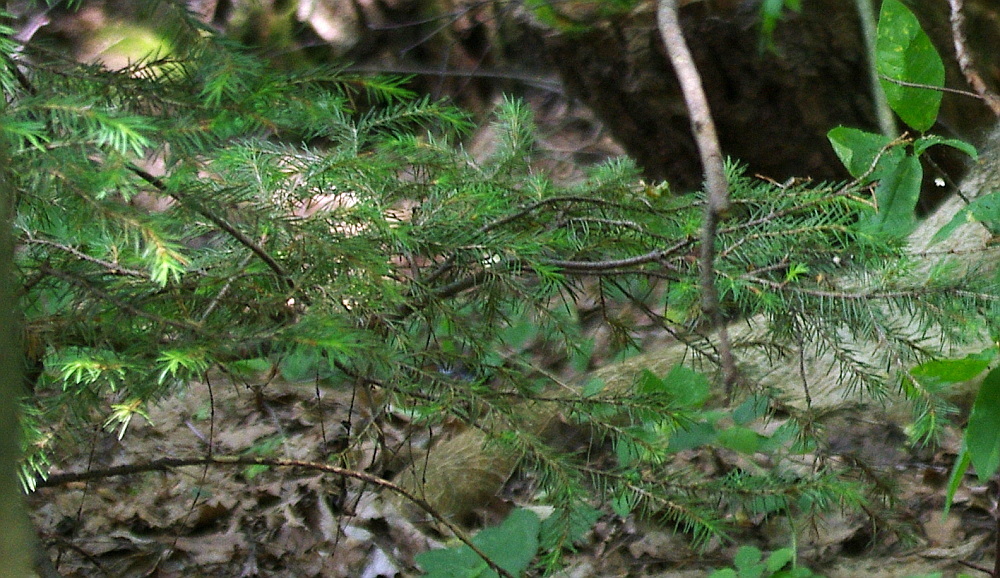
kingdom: Plantae
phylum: Tracheophyta
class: Pinopsida
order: Pinales
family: Pinaceae
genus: Picea
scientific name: Picea abies
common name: Norway spruce
